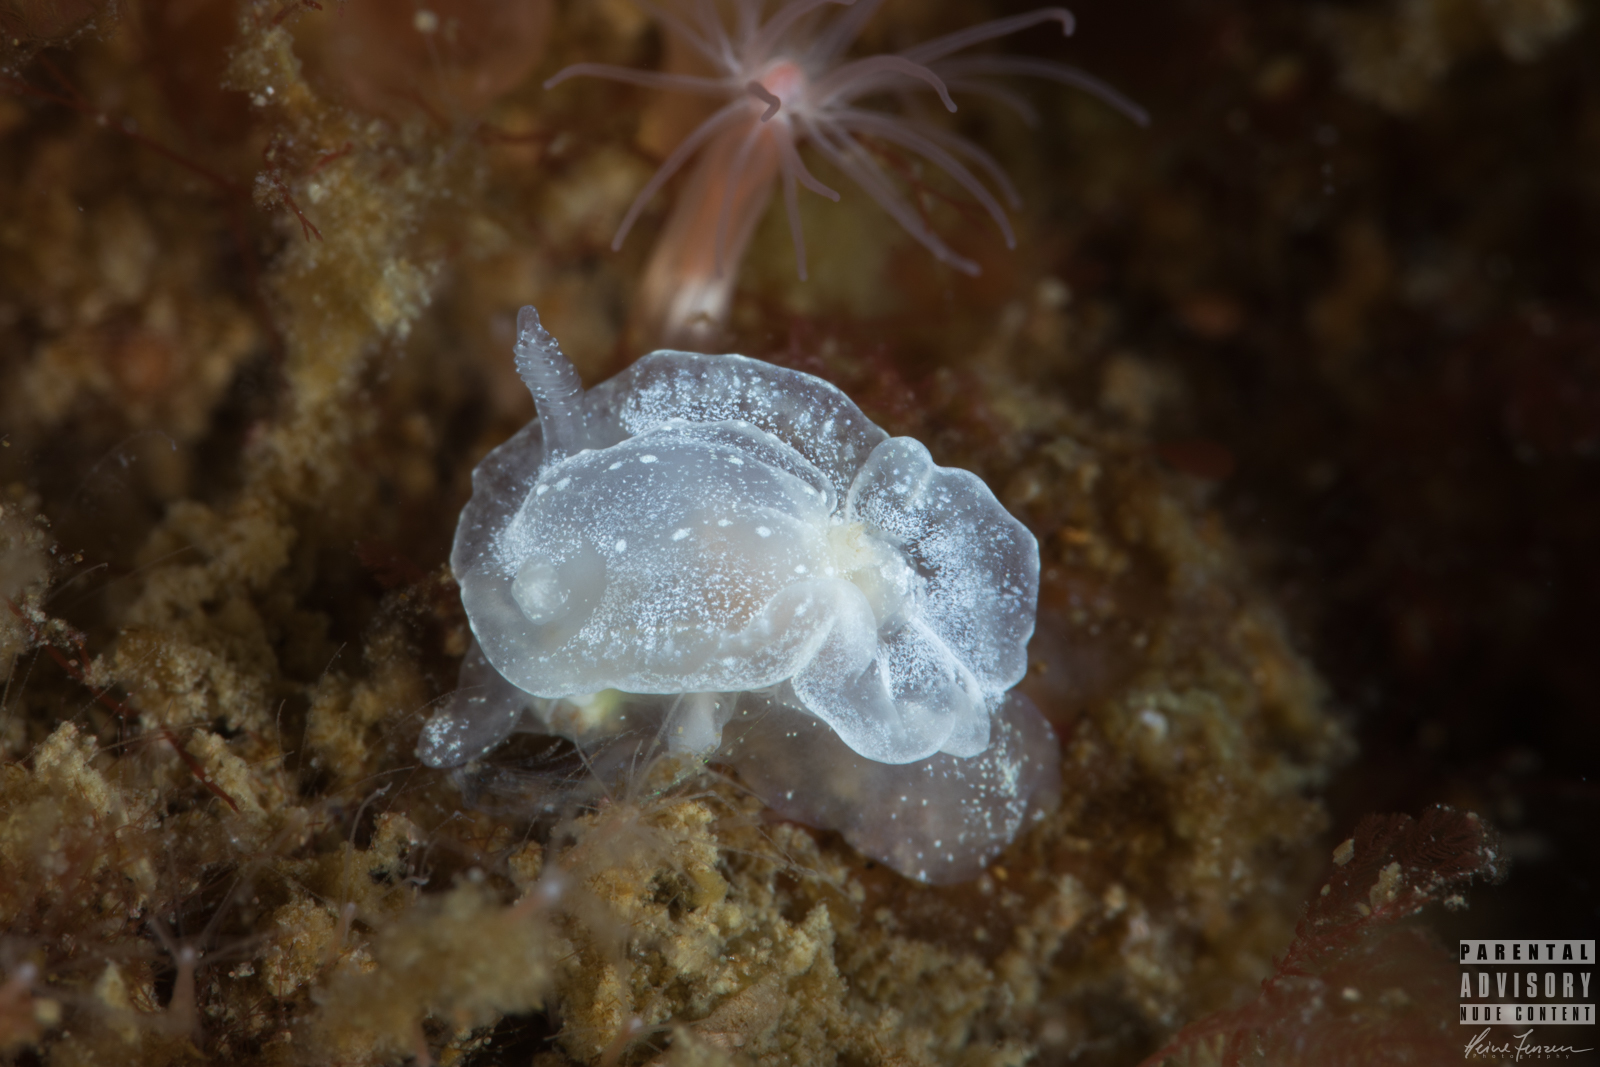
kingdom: Animalia
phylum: Mollusca
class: Gastropoda
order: Nudibranchia
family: Goniodorididae
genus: Okenia
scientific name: Okenia
